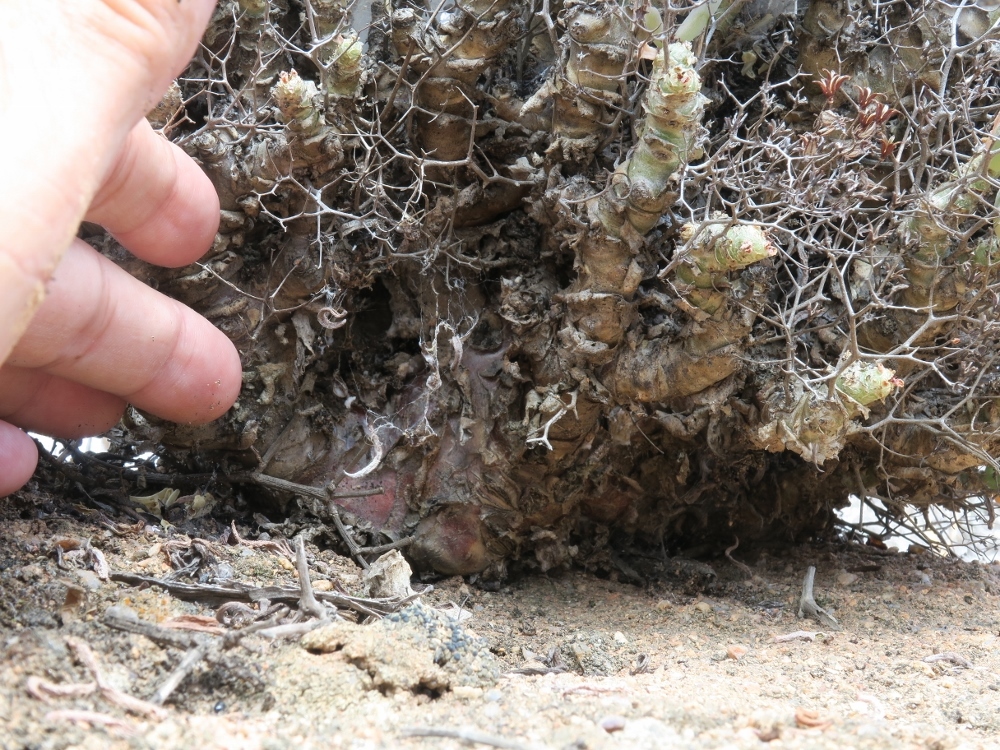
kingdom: Plantae
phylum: Tracheophyta
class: Magnoliopsida
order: Saxifragales
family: Crassulaceae
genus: Tylecodon
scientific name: Tylecodon reticulatus
